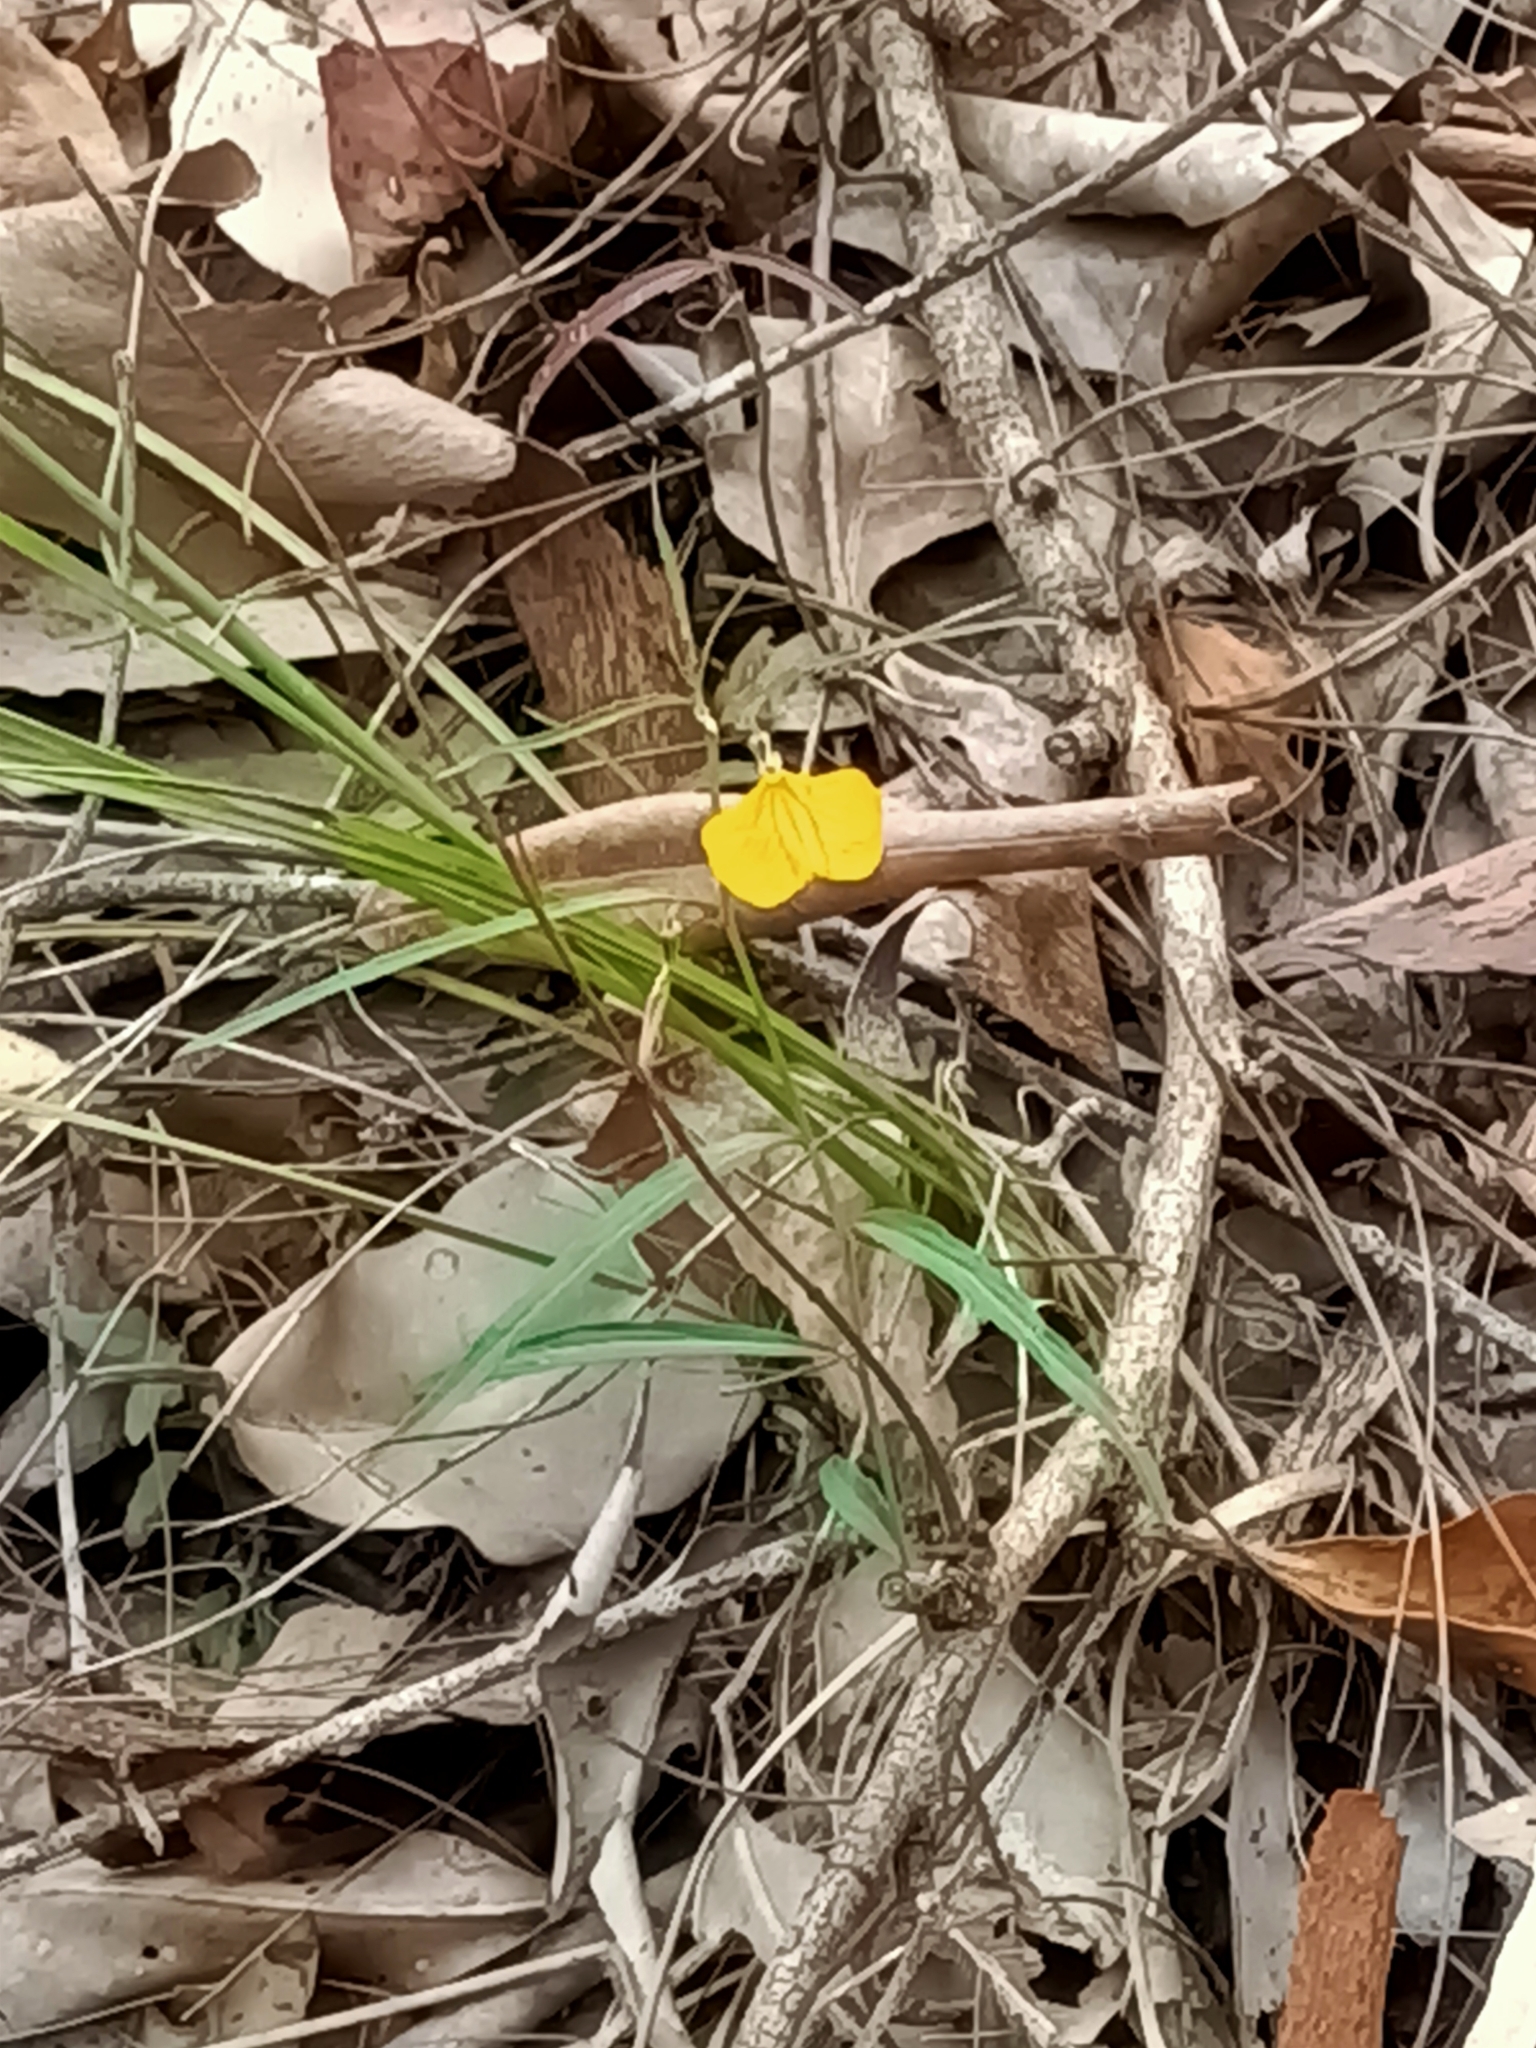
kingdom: Plantae
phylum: Tracheophyta
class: Magnoliopsida
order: Malpighiales
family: Violaceae
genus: Pigea
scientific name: Pigea stellarioides
